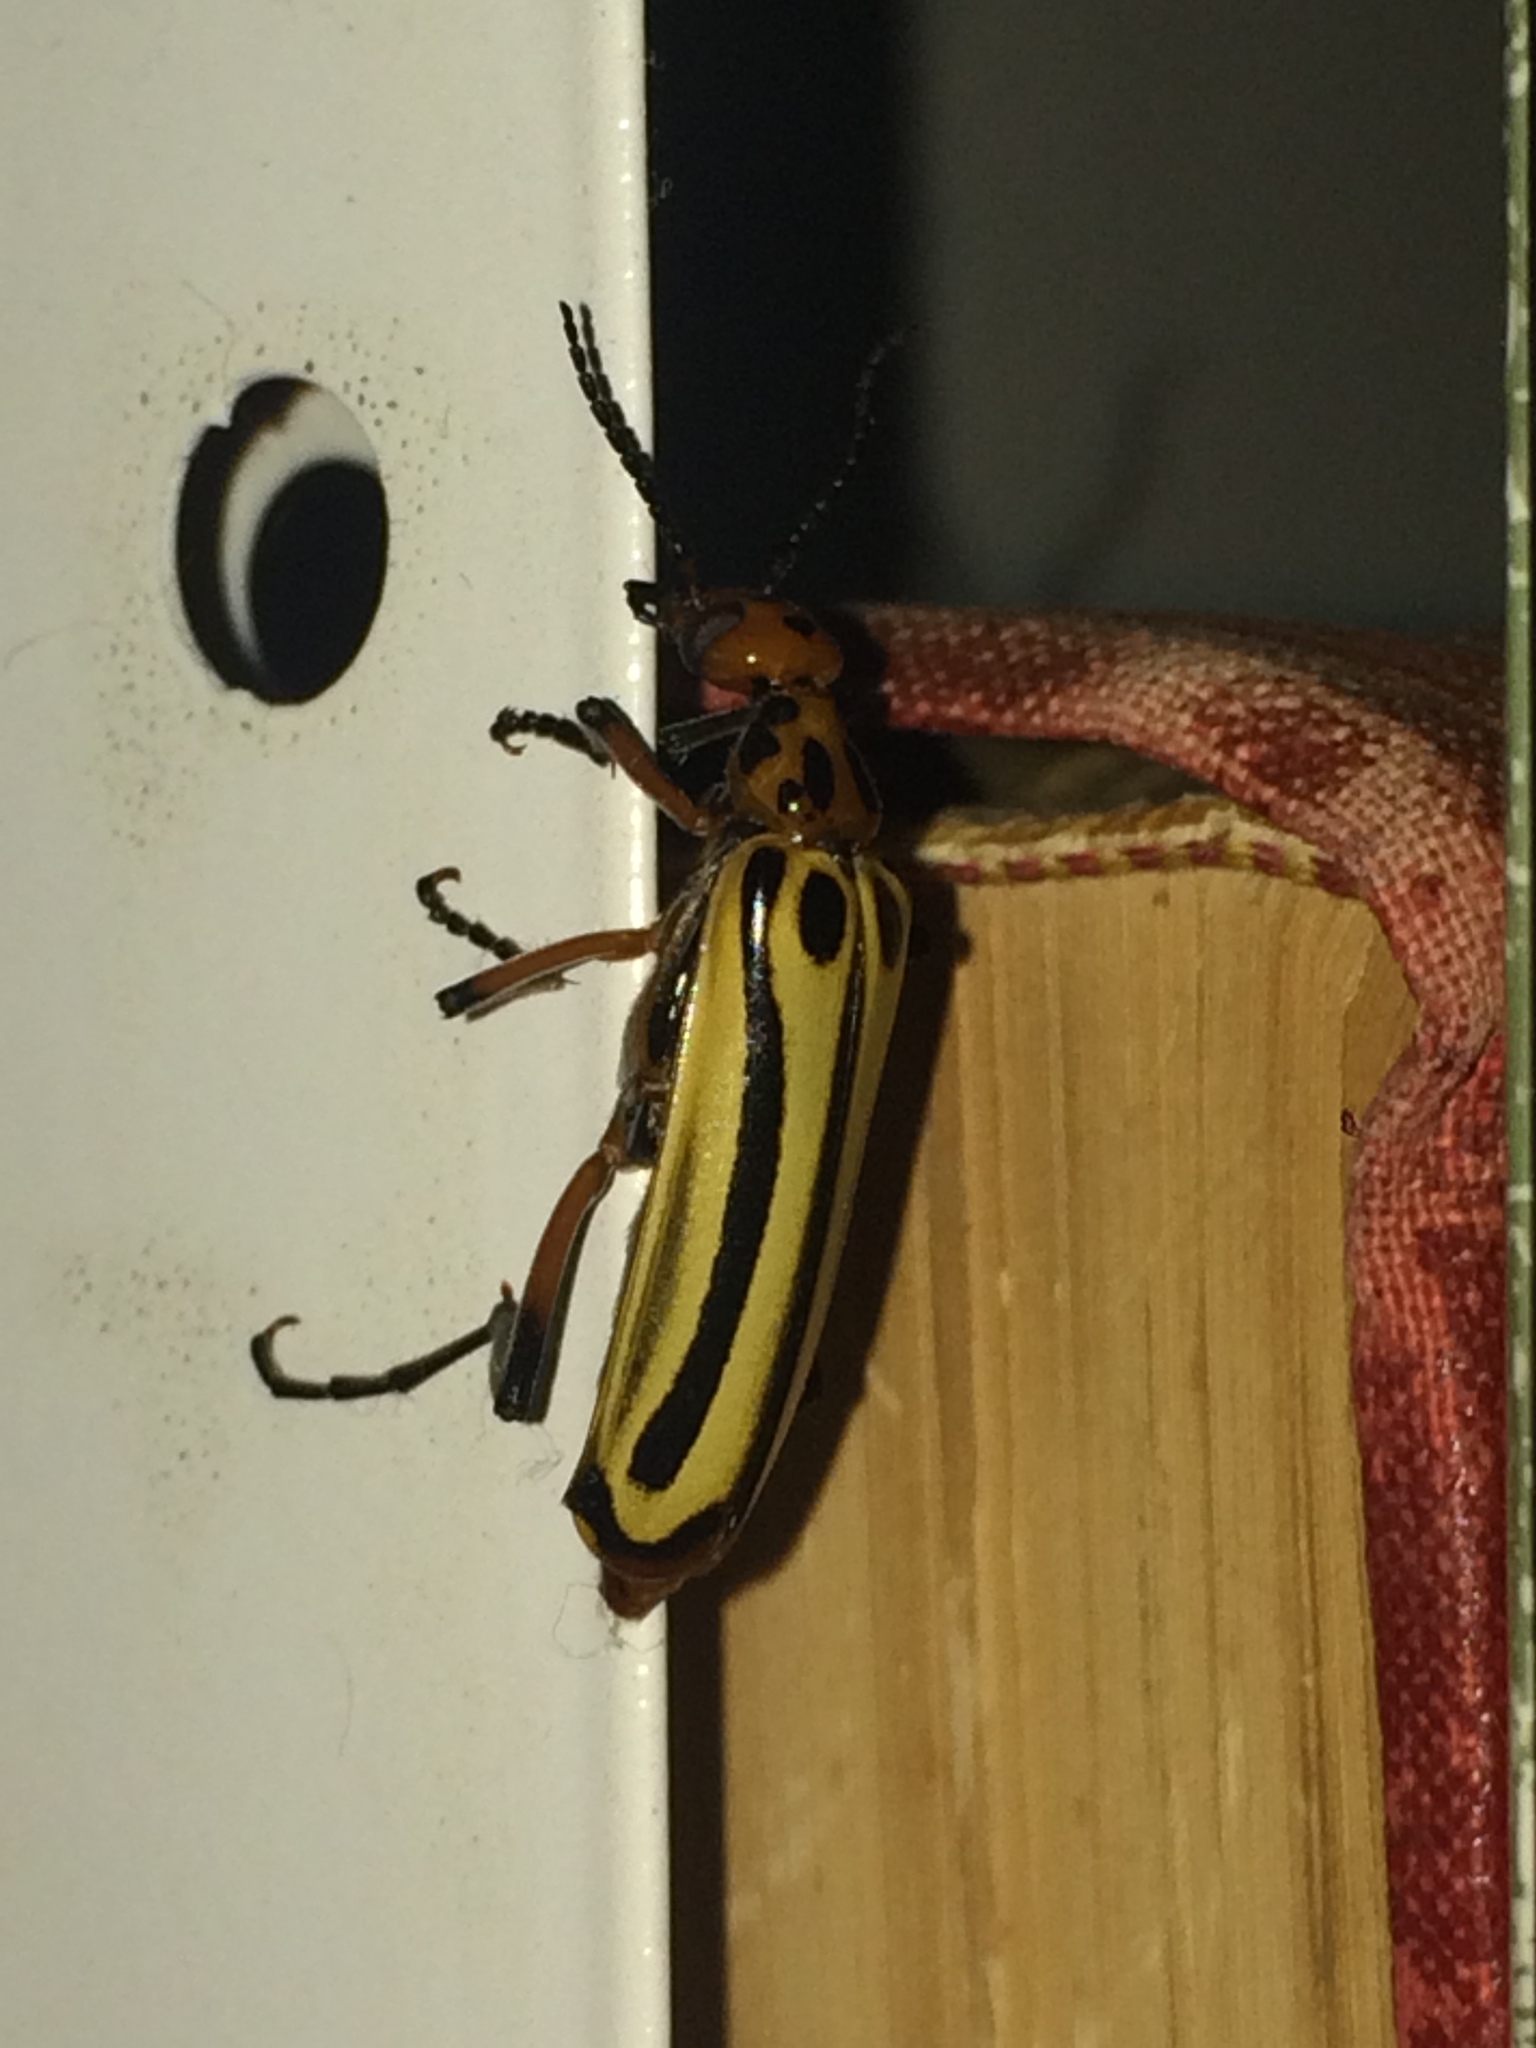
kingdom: Animalia
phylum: Arthropoda
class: Insecta
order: Coleoptera
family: Meloidae
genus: Pyrota
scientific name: Pyrota
